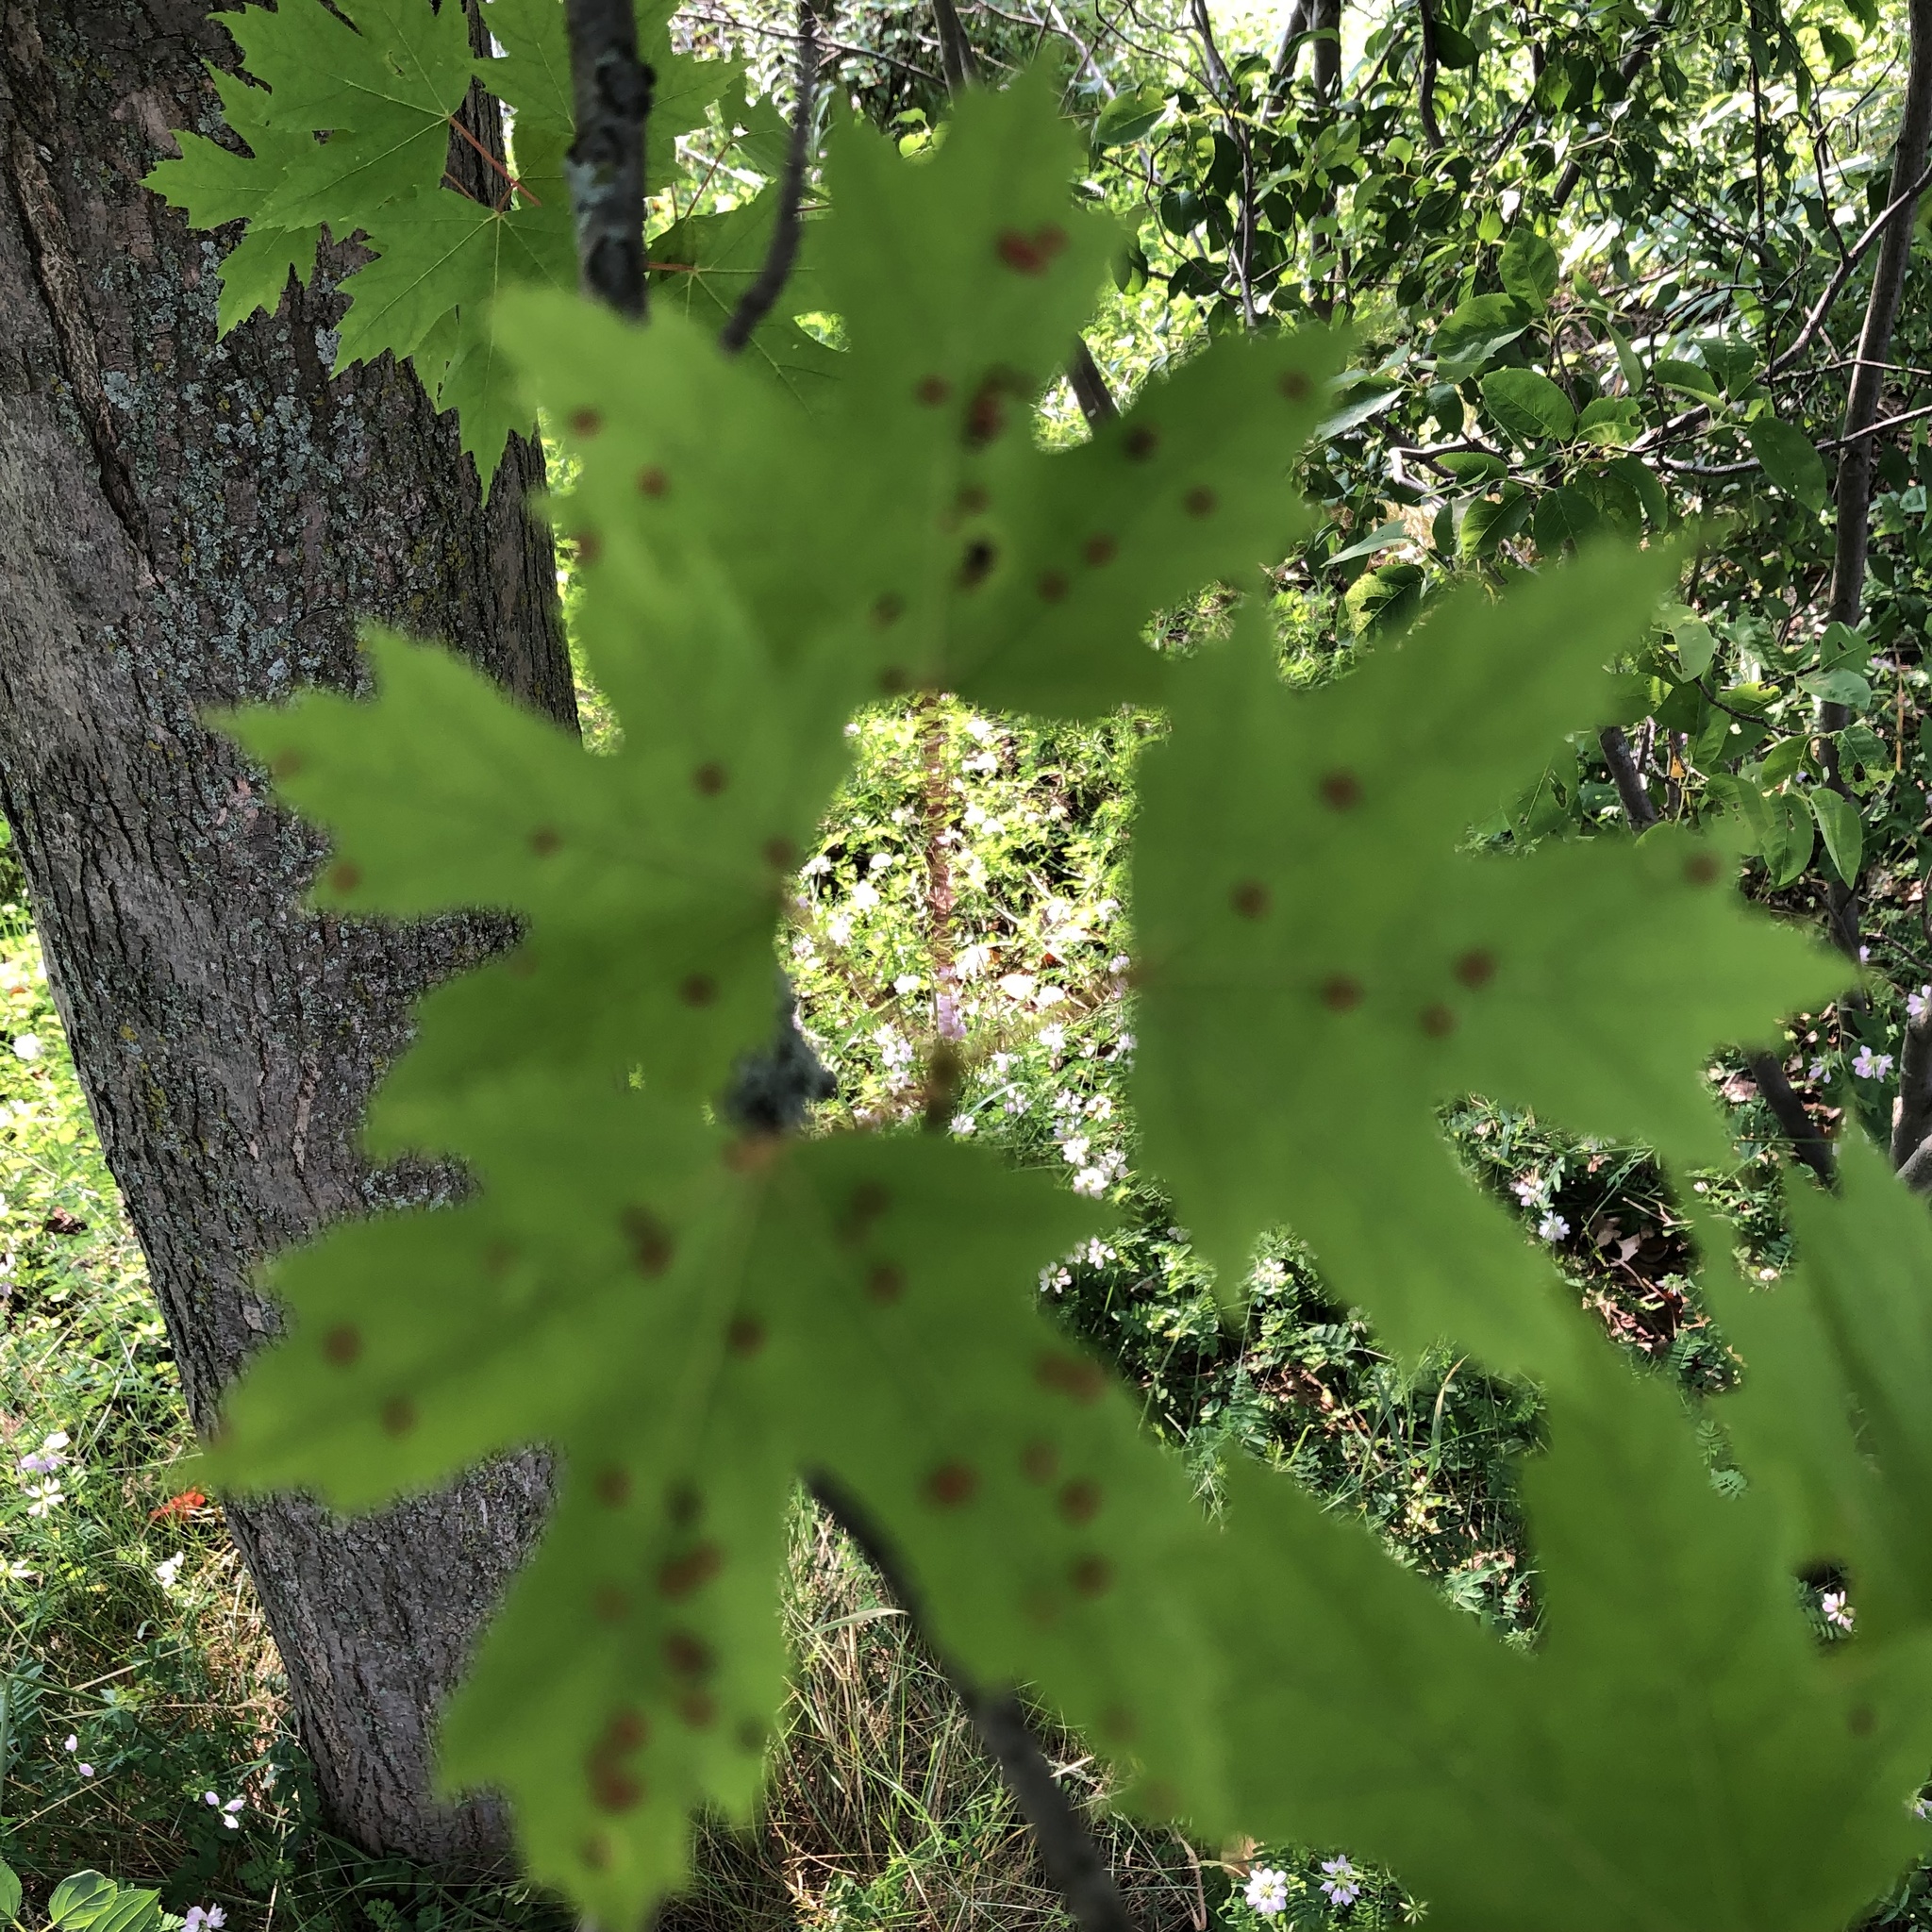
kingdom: Animalia
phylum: Arthropoda
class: Arachnida
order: Trombidiformes
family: Eriophyidae
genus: Vasates
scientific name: Vasates quadripedes
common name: Maple bladder gall mite
